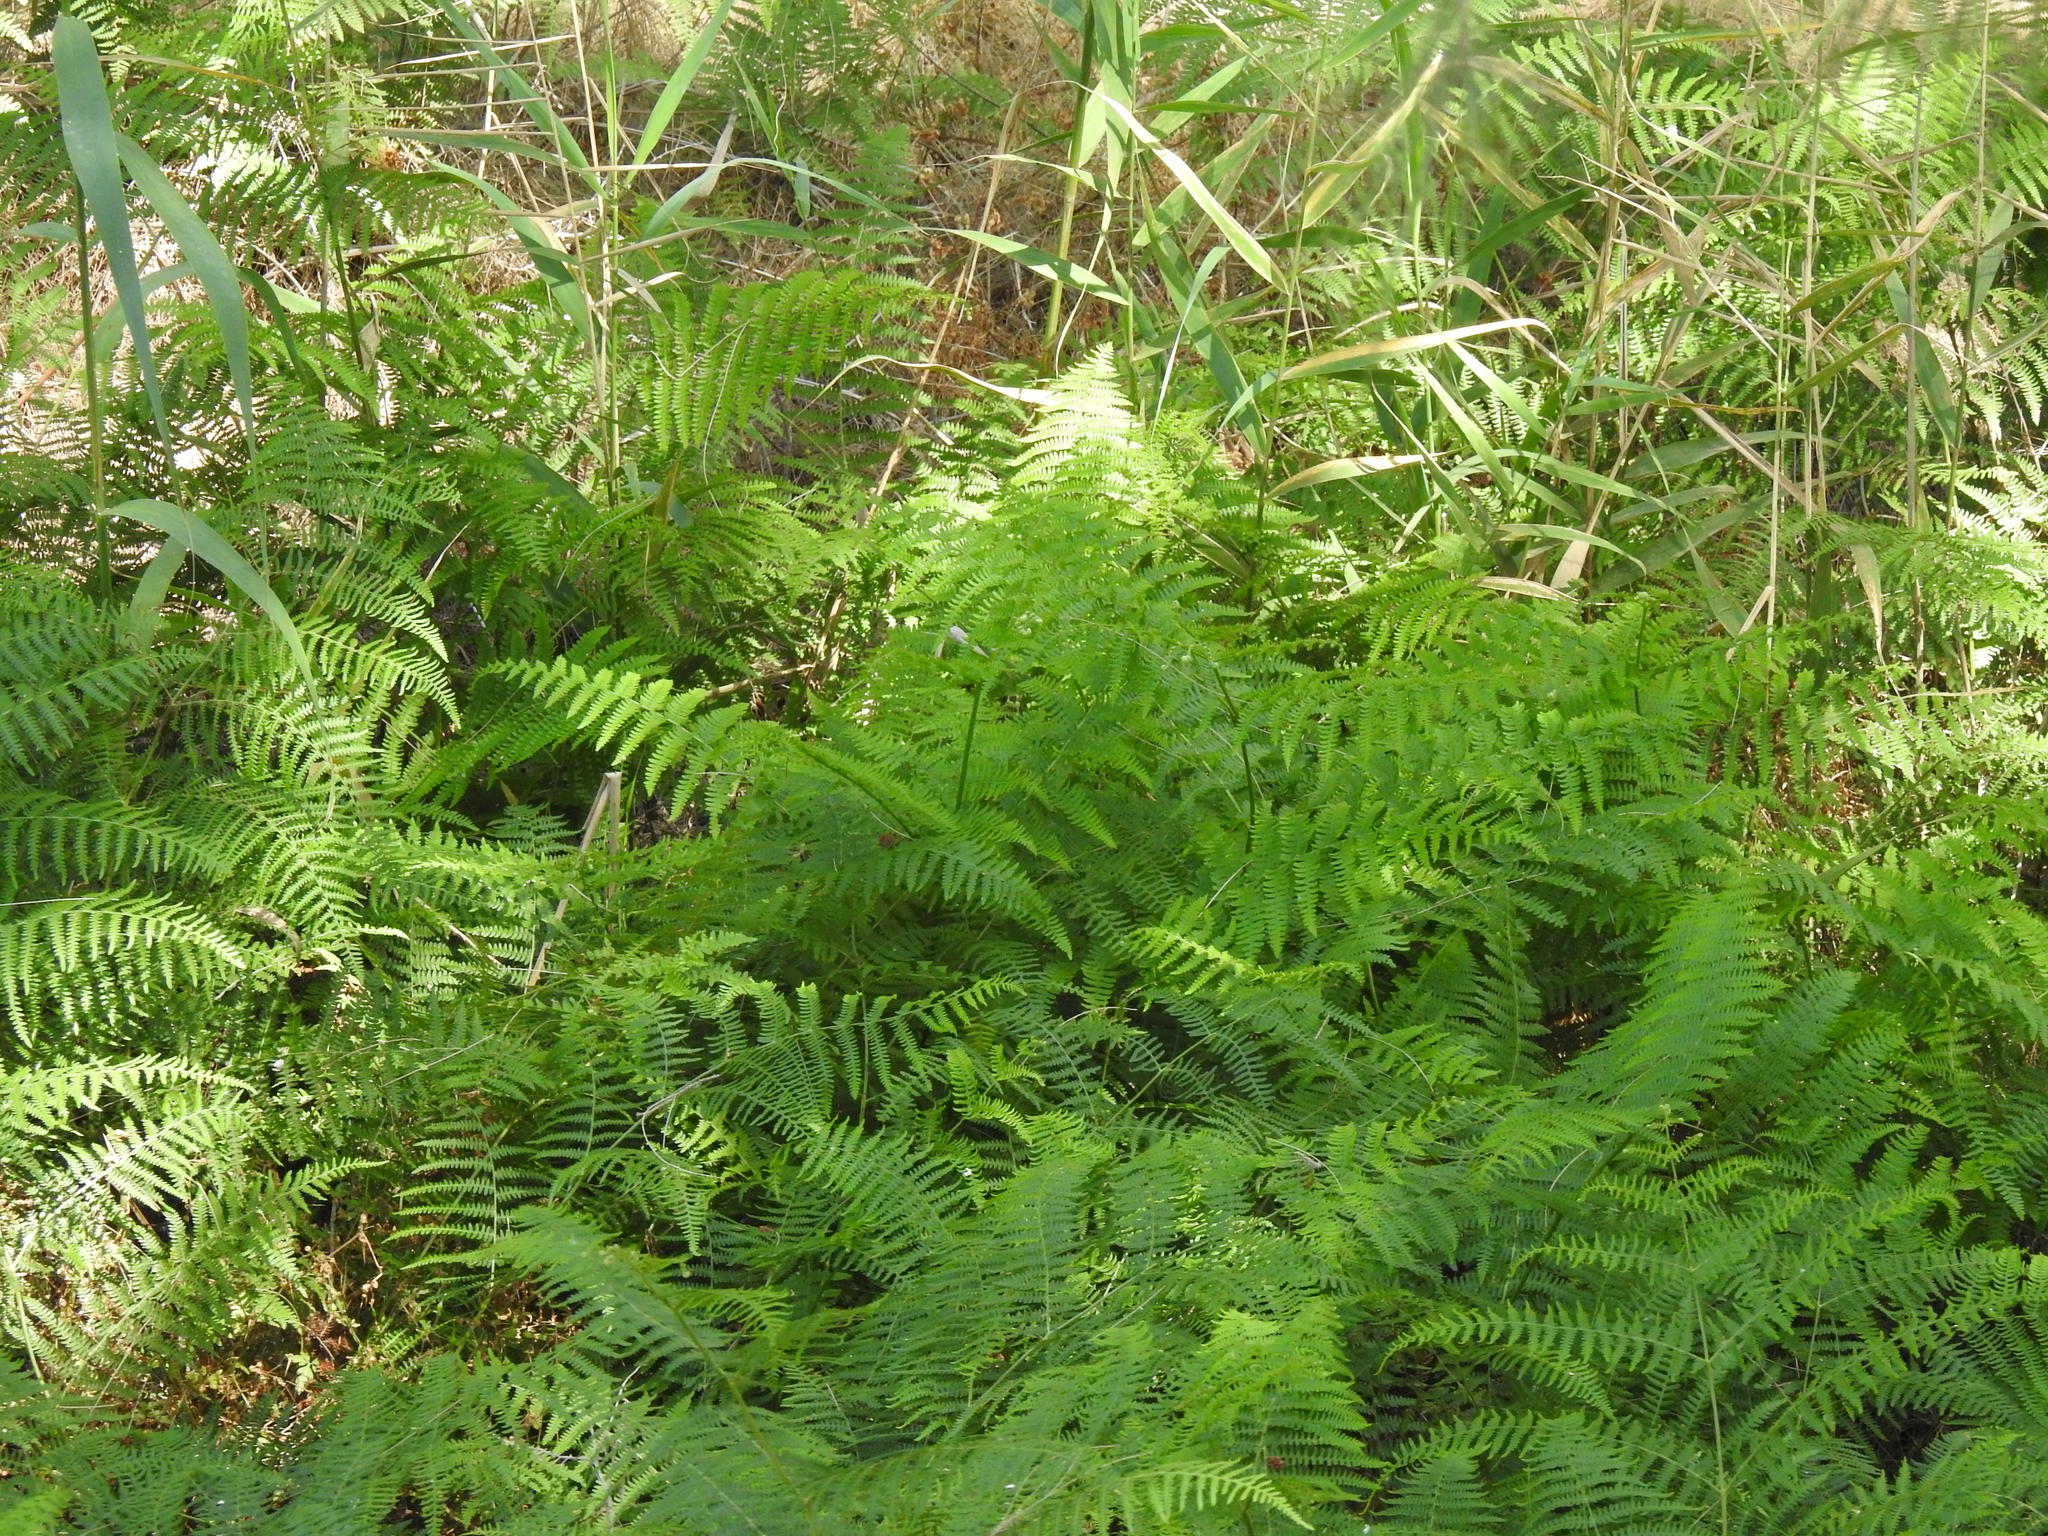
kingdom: Plantae
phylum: Tracheophyta
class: Polypodiopsida
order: Polypodiales
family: Dennstaedtiaceae
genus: Pteridium
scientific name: Pteridium aquilinum
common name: Bracken
